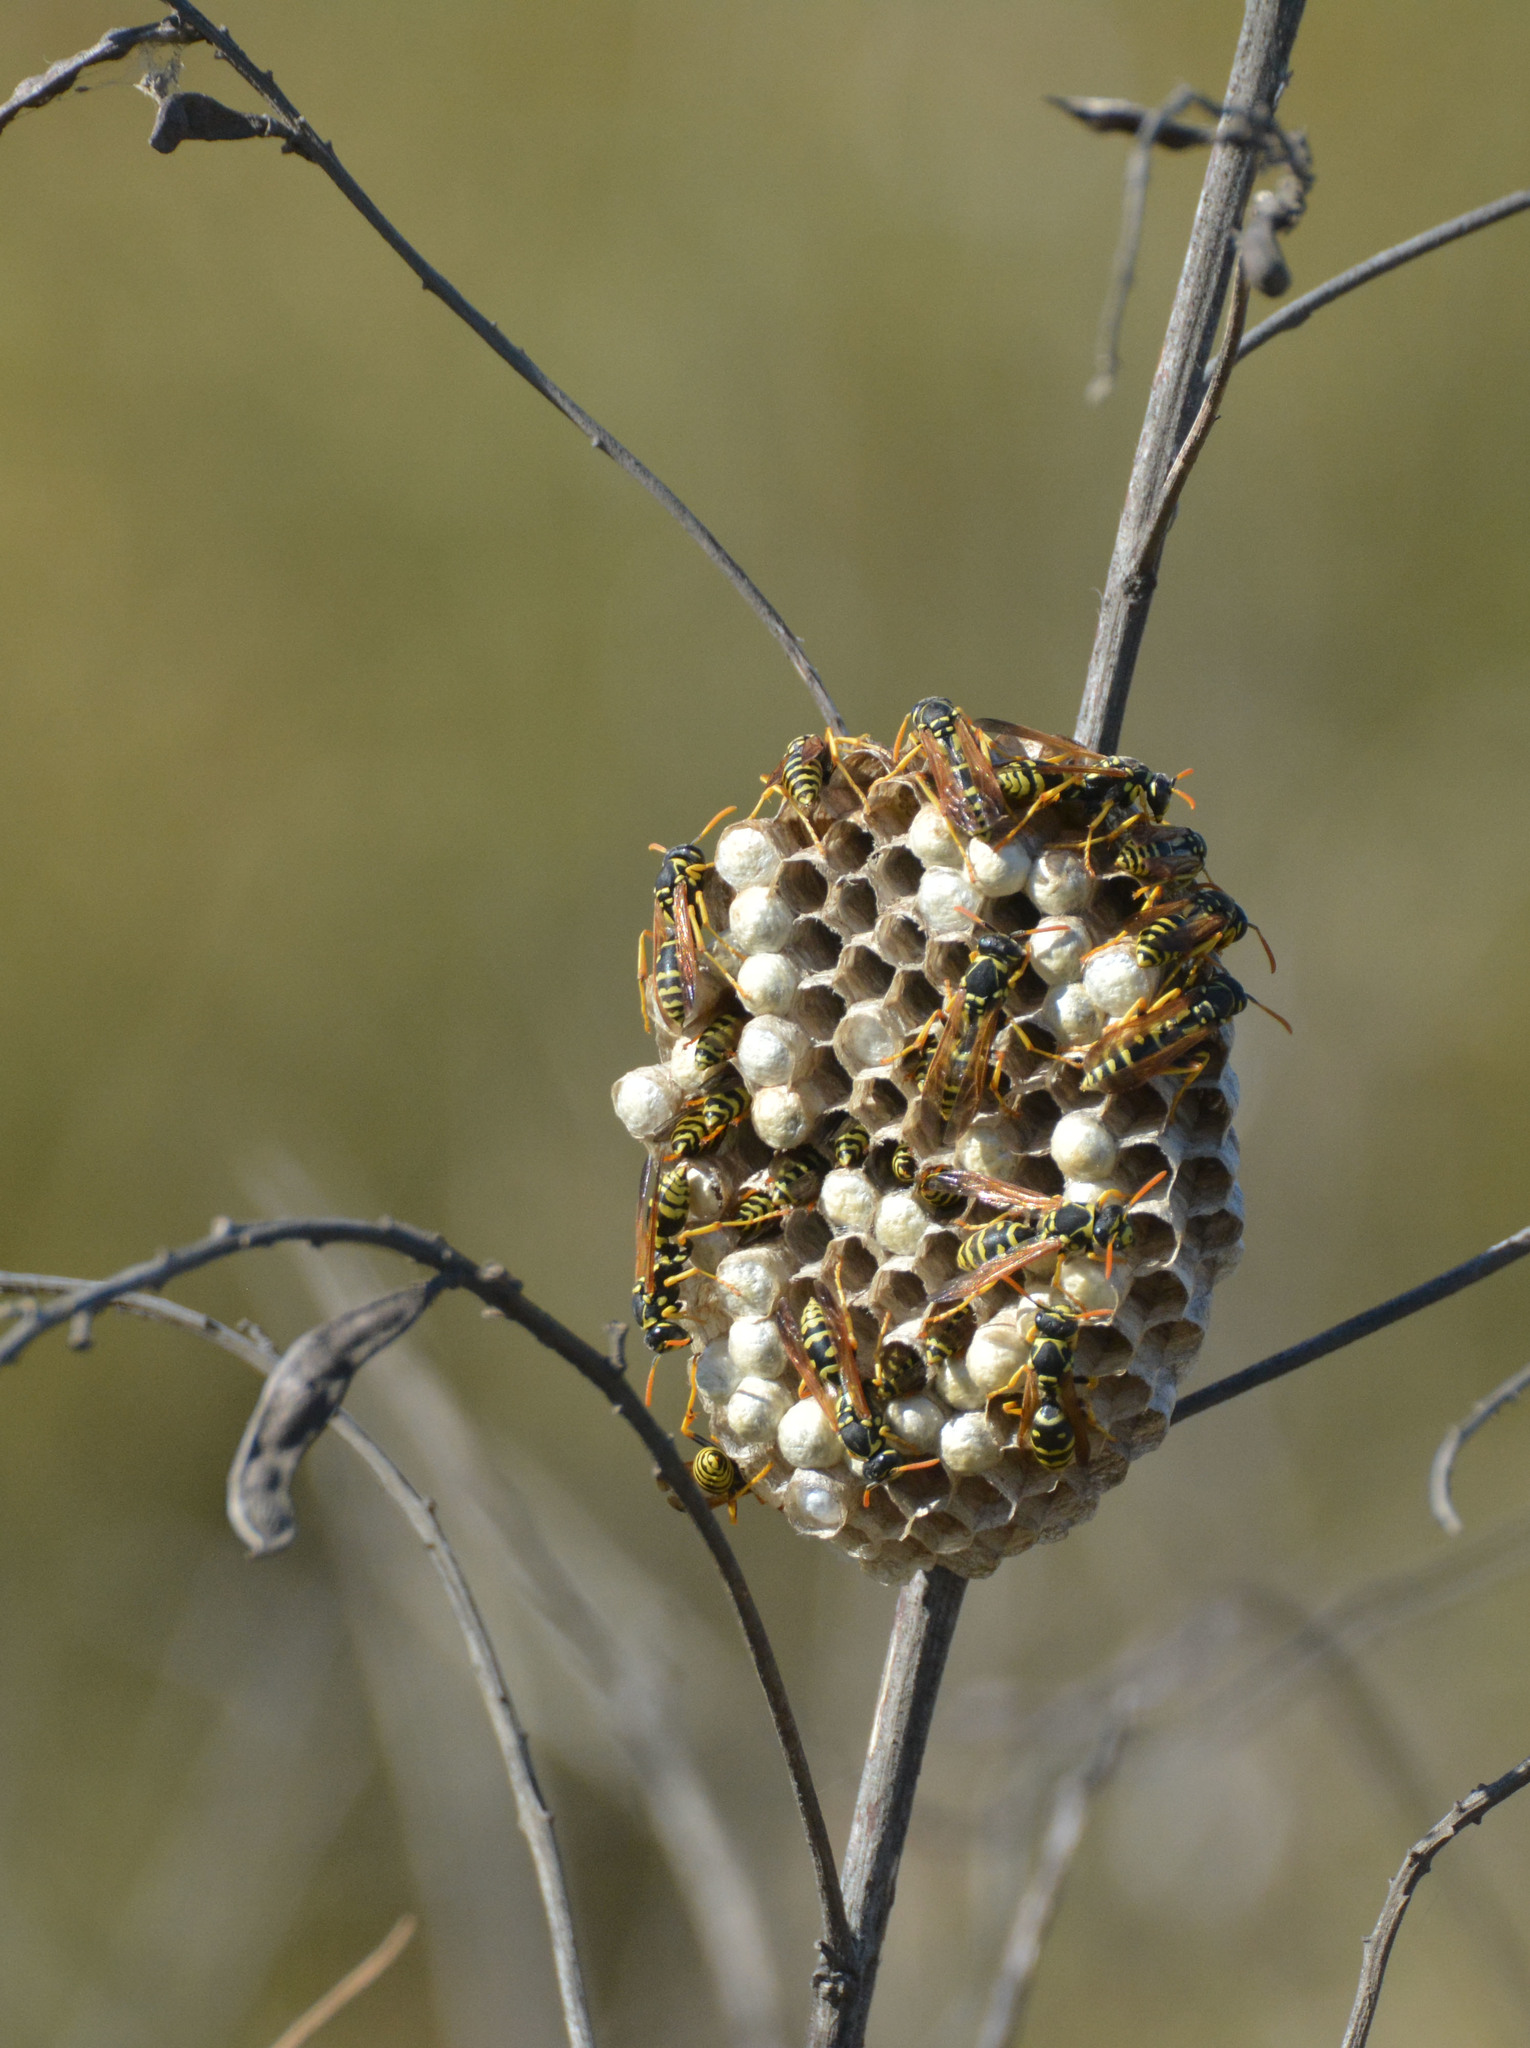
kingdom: Animalia
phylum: Arthropoda
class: Insecta
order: Hymenoptera
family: Eumenidae
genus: Polistes
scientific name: Polistes gallicus
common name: Paper wasp
